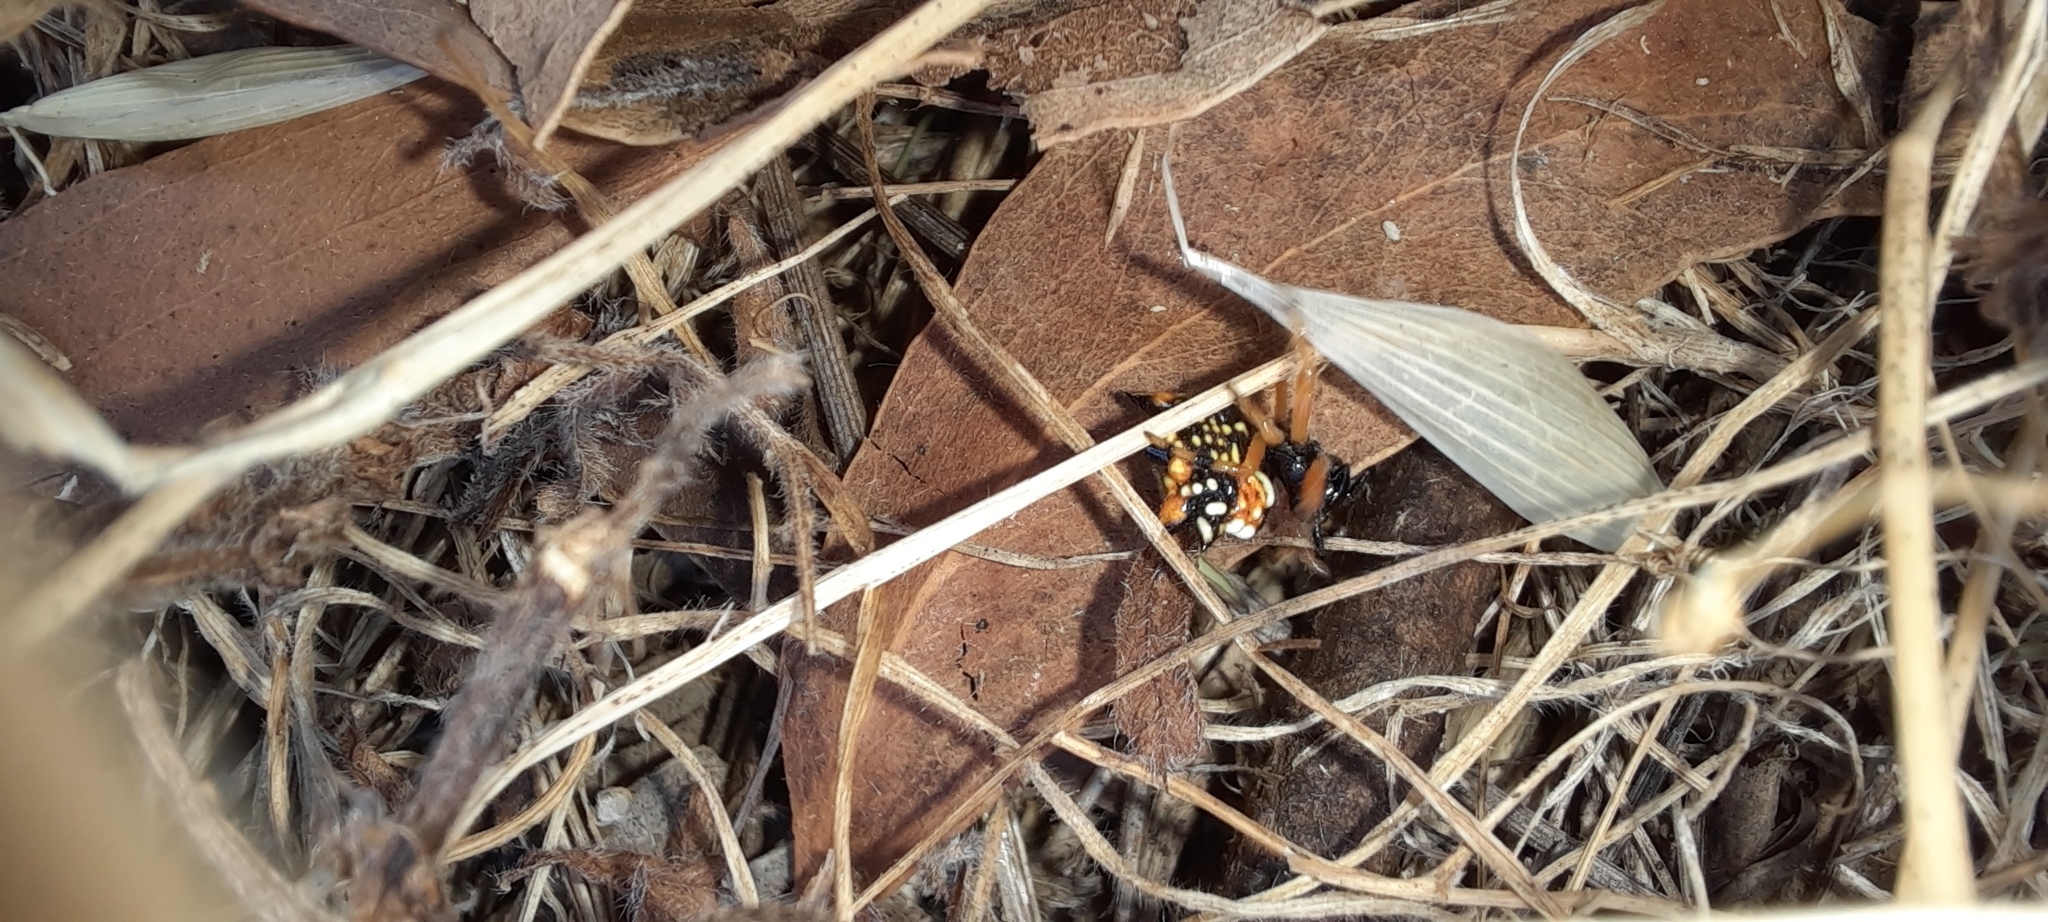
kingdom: Animalia
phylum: Arthropoda
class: Arachnida
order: Araneae
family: Araneidae
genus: Austracantha
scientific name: Austracantha minax
